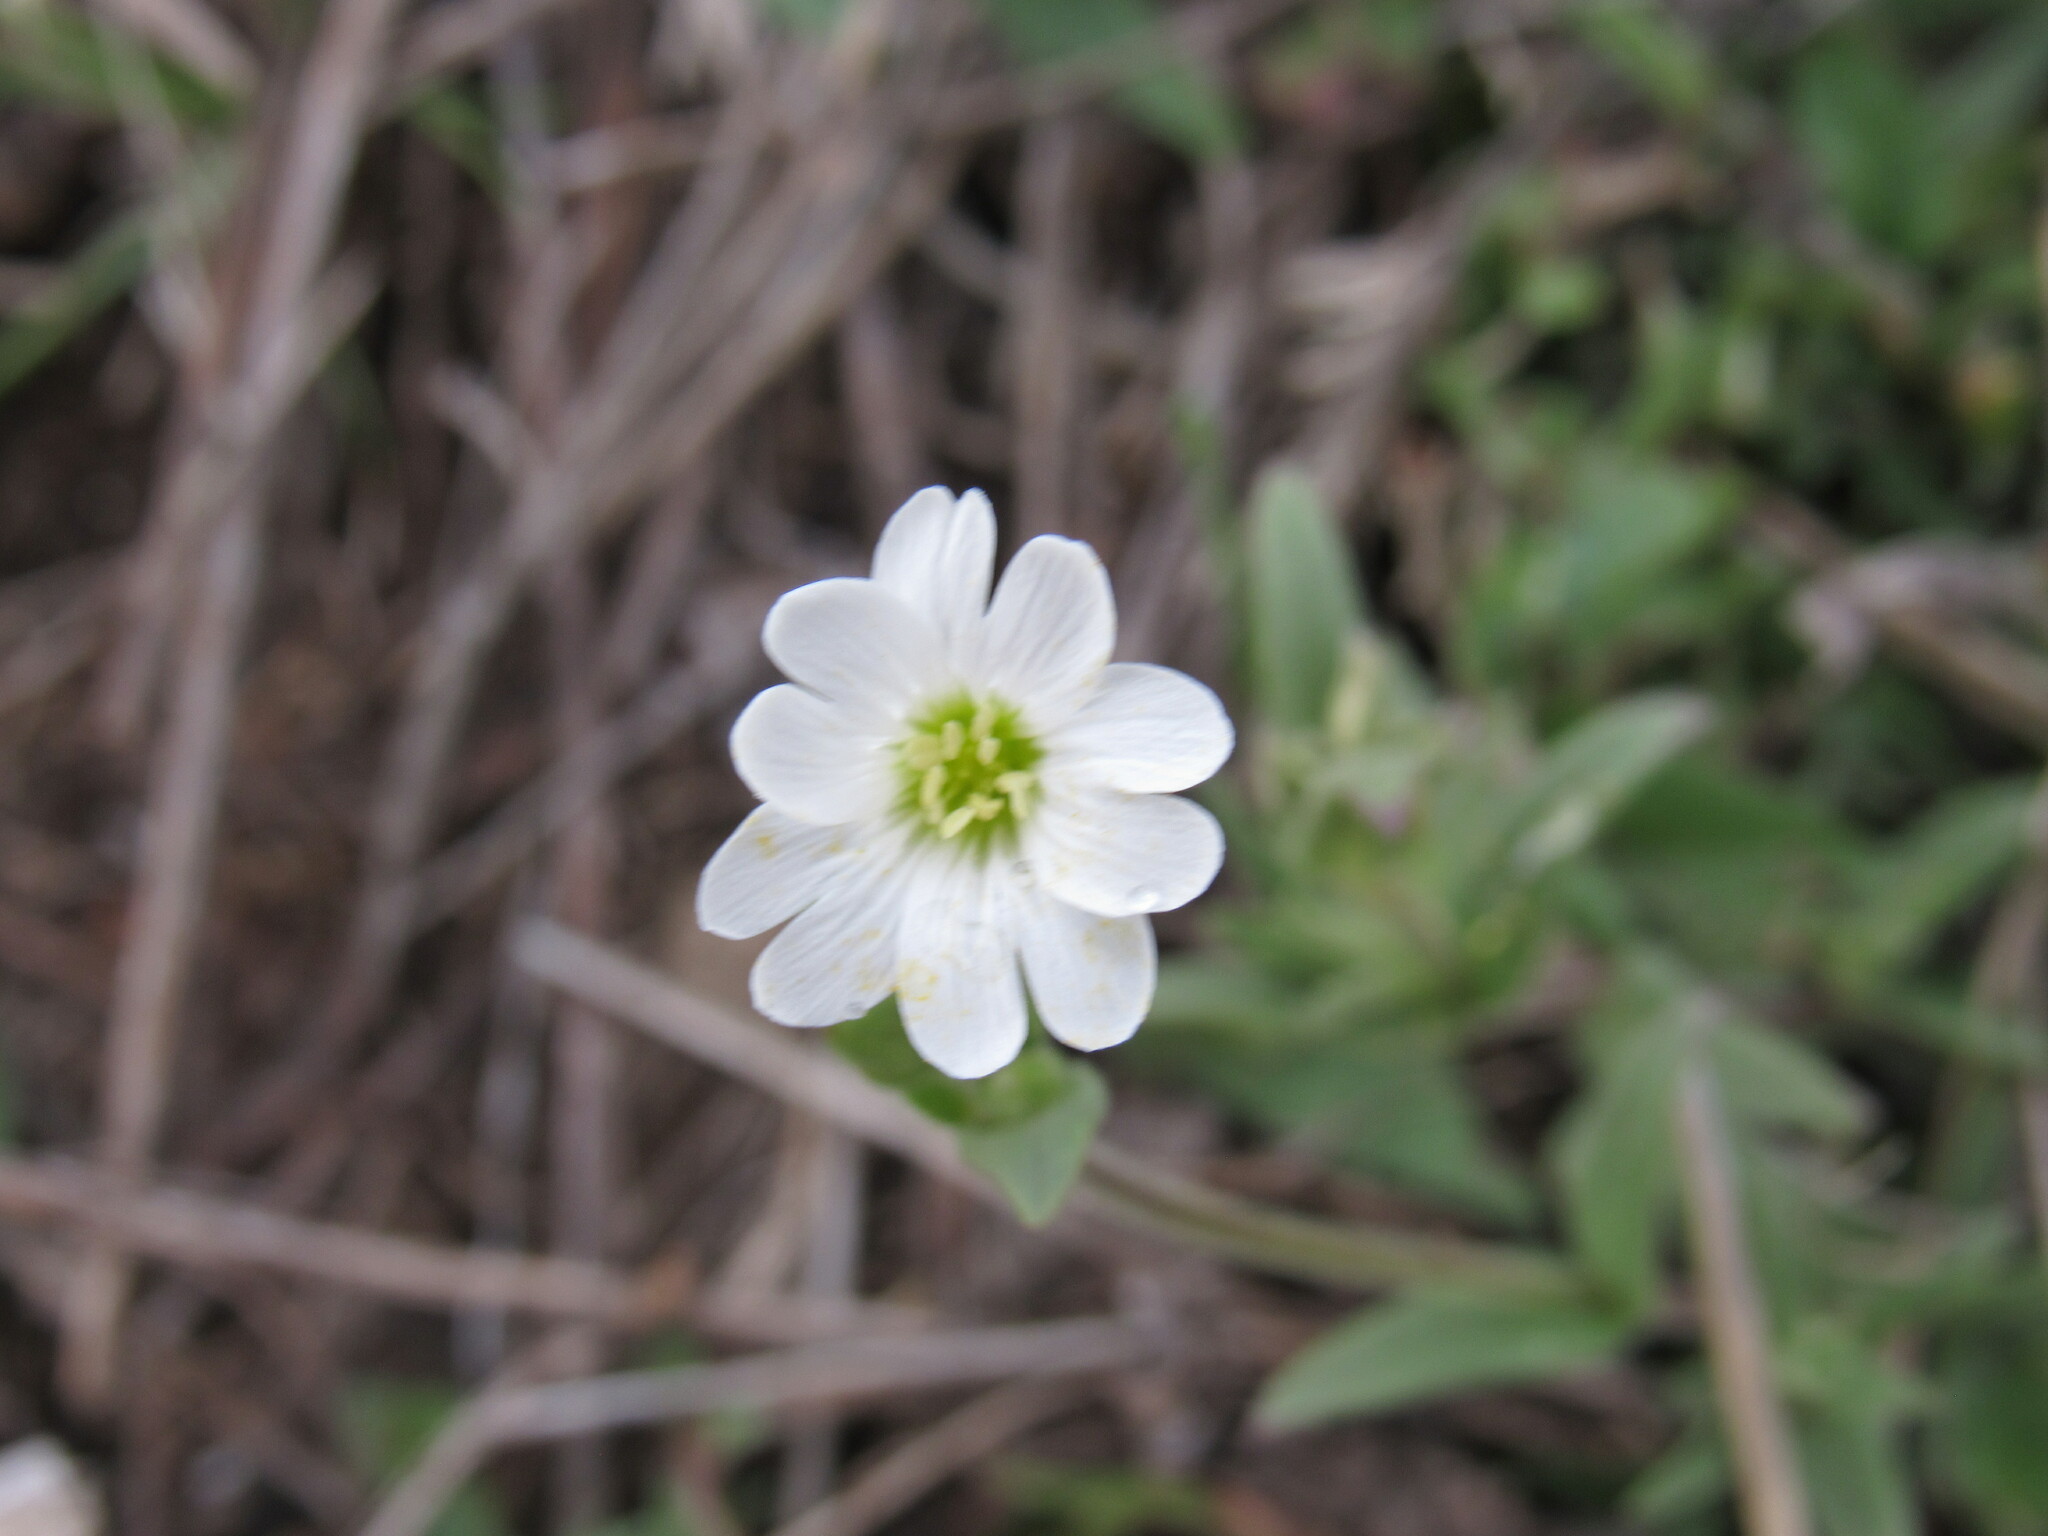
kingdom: Plantae
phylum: Tracheophyta
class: Magnoliopsida
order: Caryophyllales
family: Caryophyllaceae
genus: Cerastium
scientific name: Cerastium arvense
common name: Field mouse-ear
